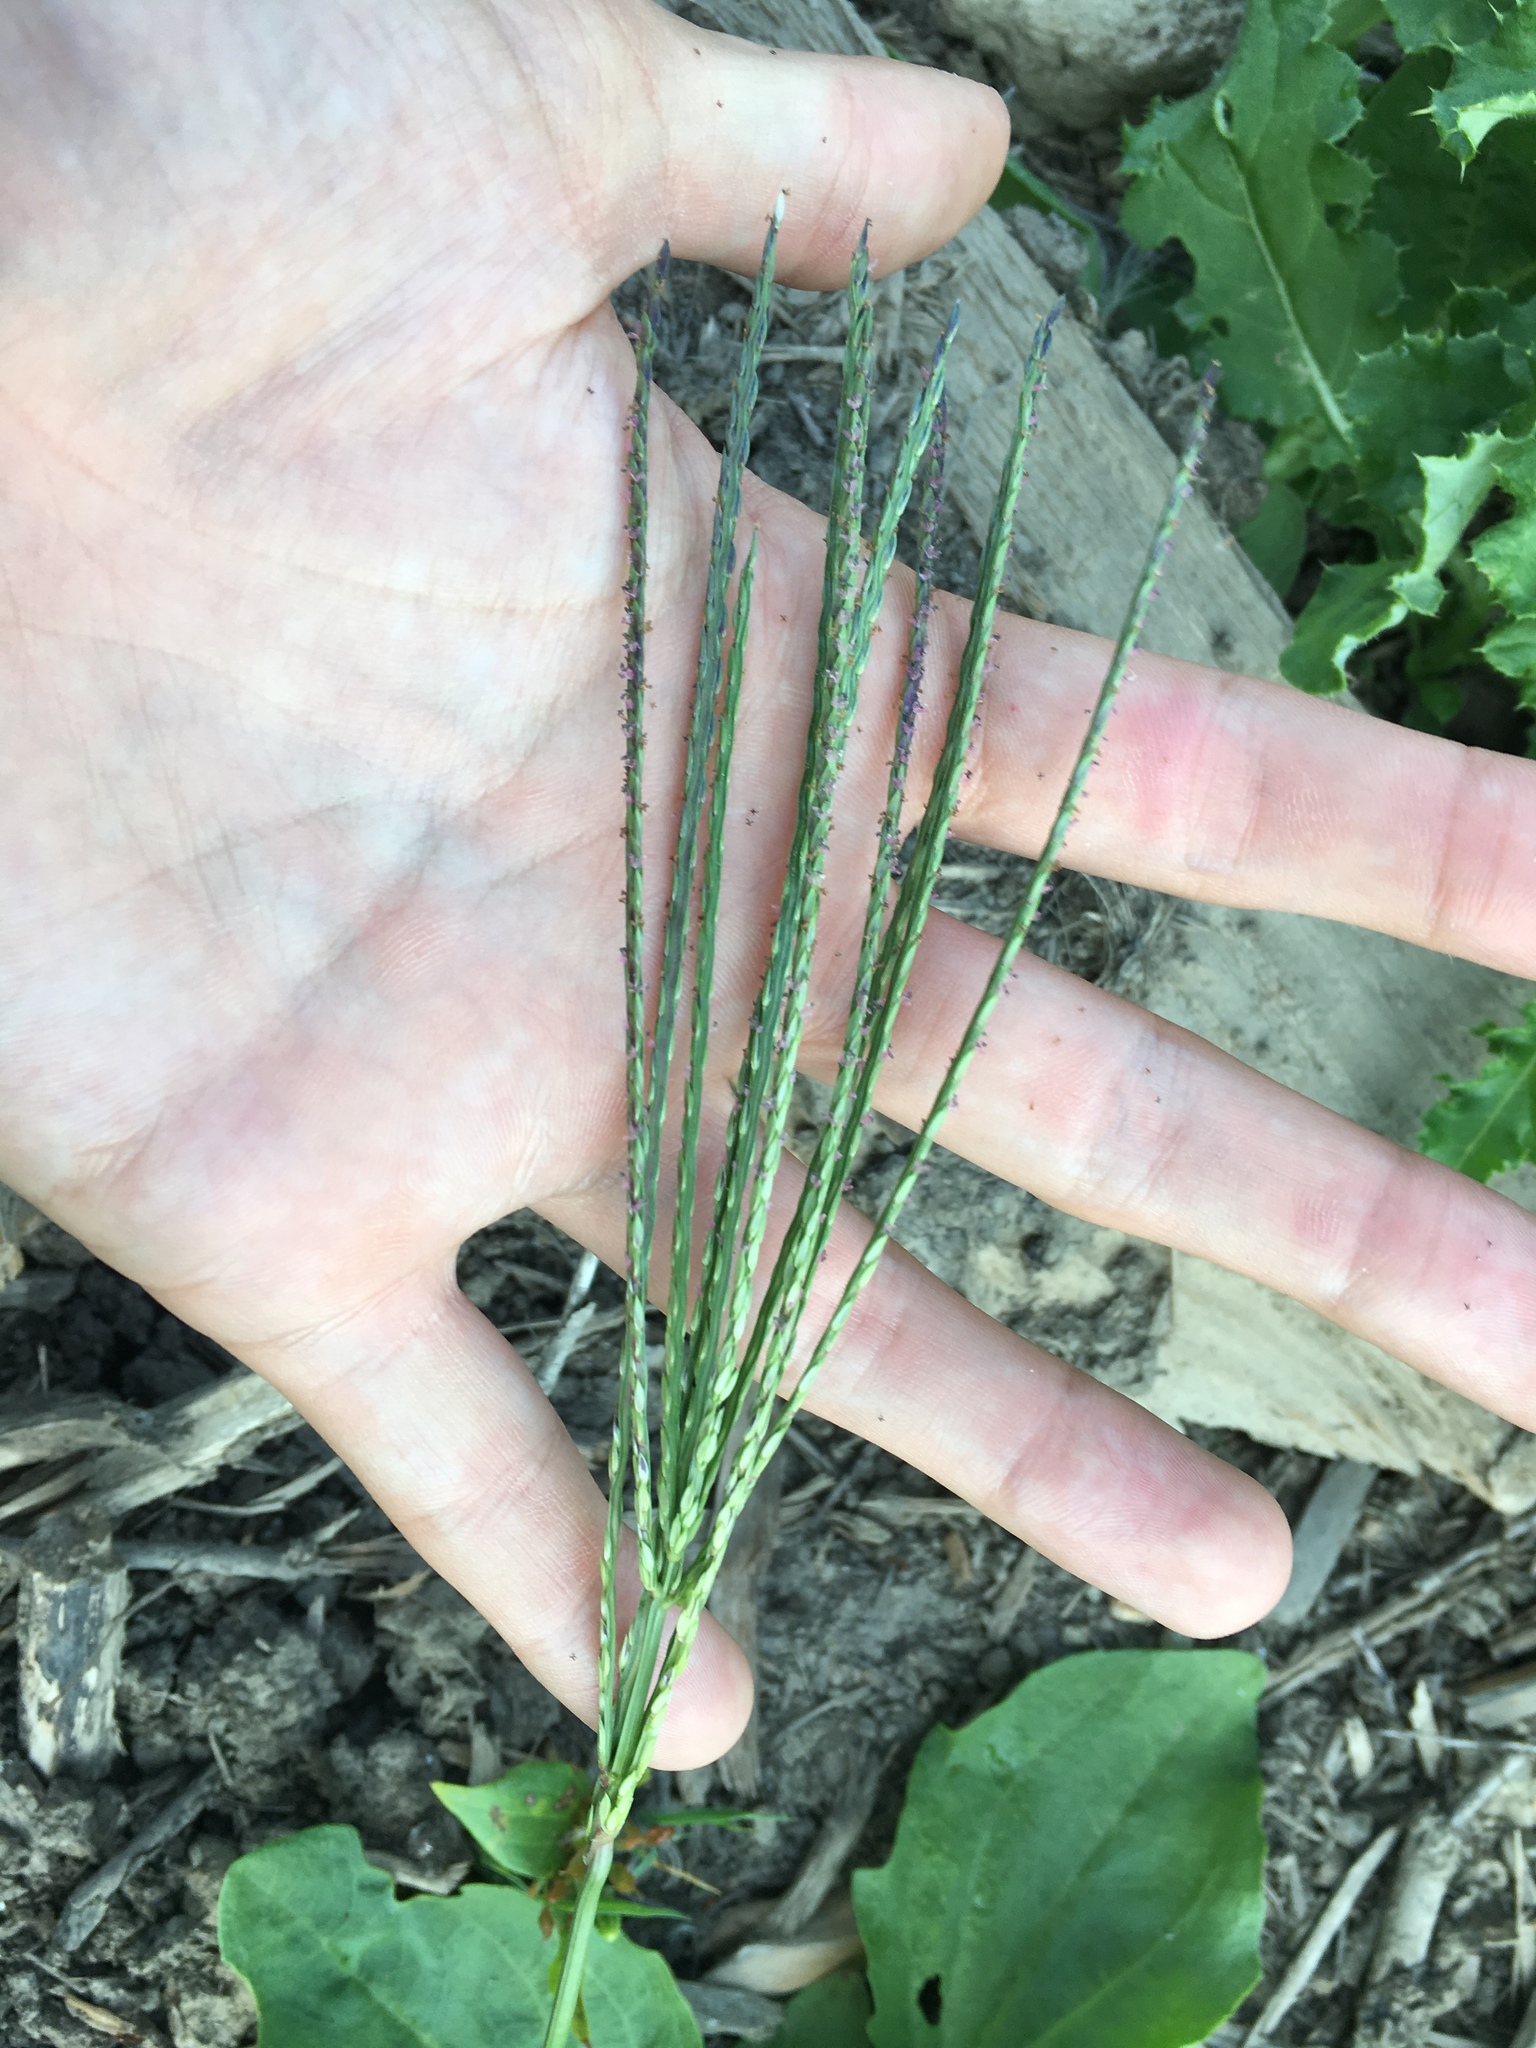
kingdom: Plantae
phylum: Tracheophyta
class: Liliopsida
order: Poales
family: Poaceae
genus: Digitaria
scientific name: Digitaria sanguinalis
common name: Hairy crabgrass
